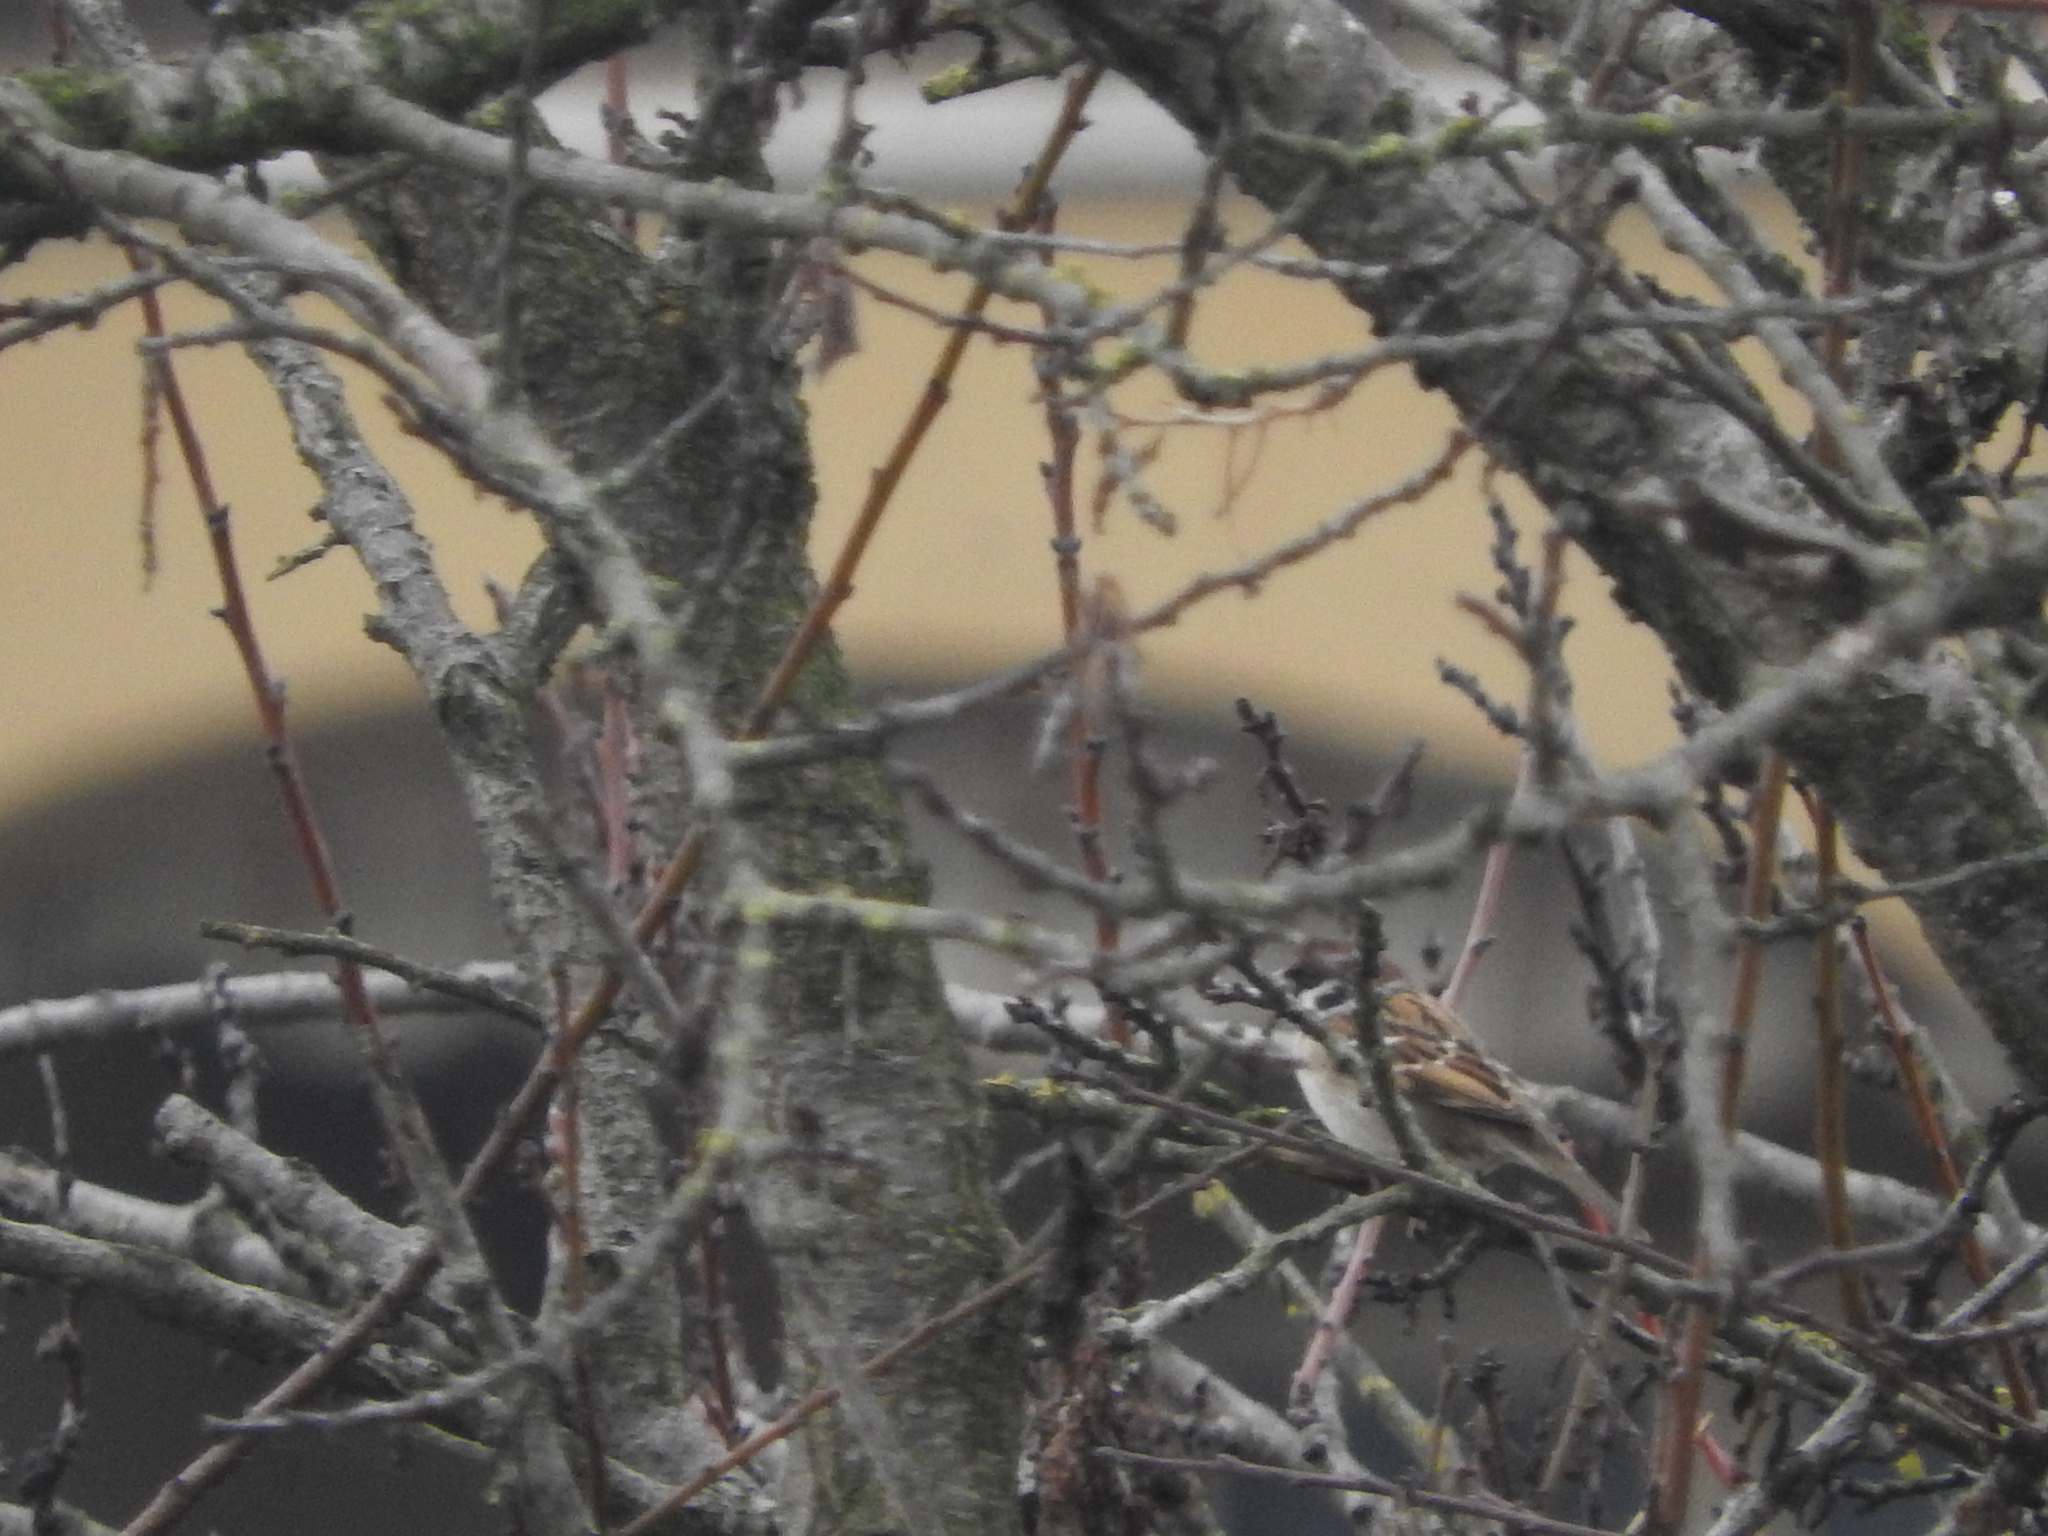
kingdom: Animalia
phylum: Chordata
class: Aves
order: Passeriformes
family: Passeridae
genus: Passer
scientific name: Passer montanus
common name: Eurasian tree sparrow
